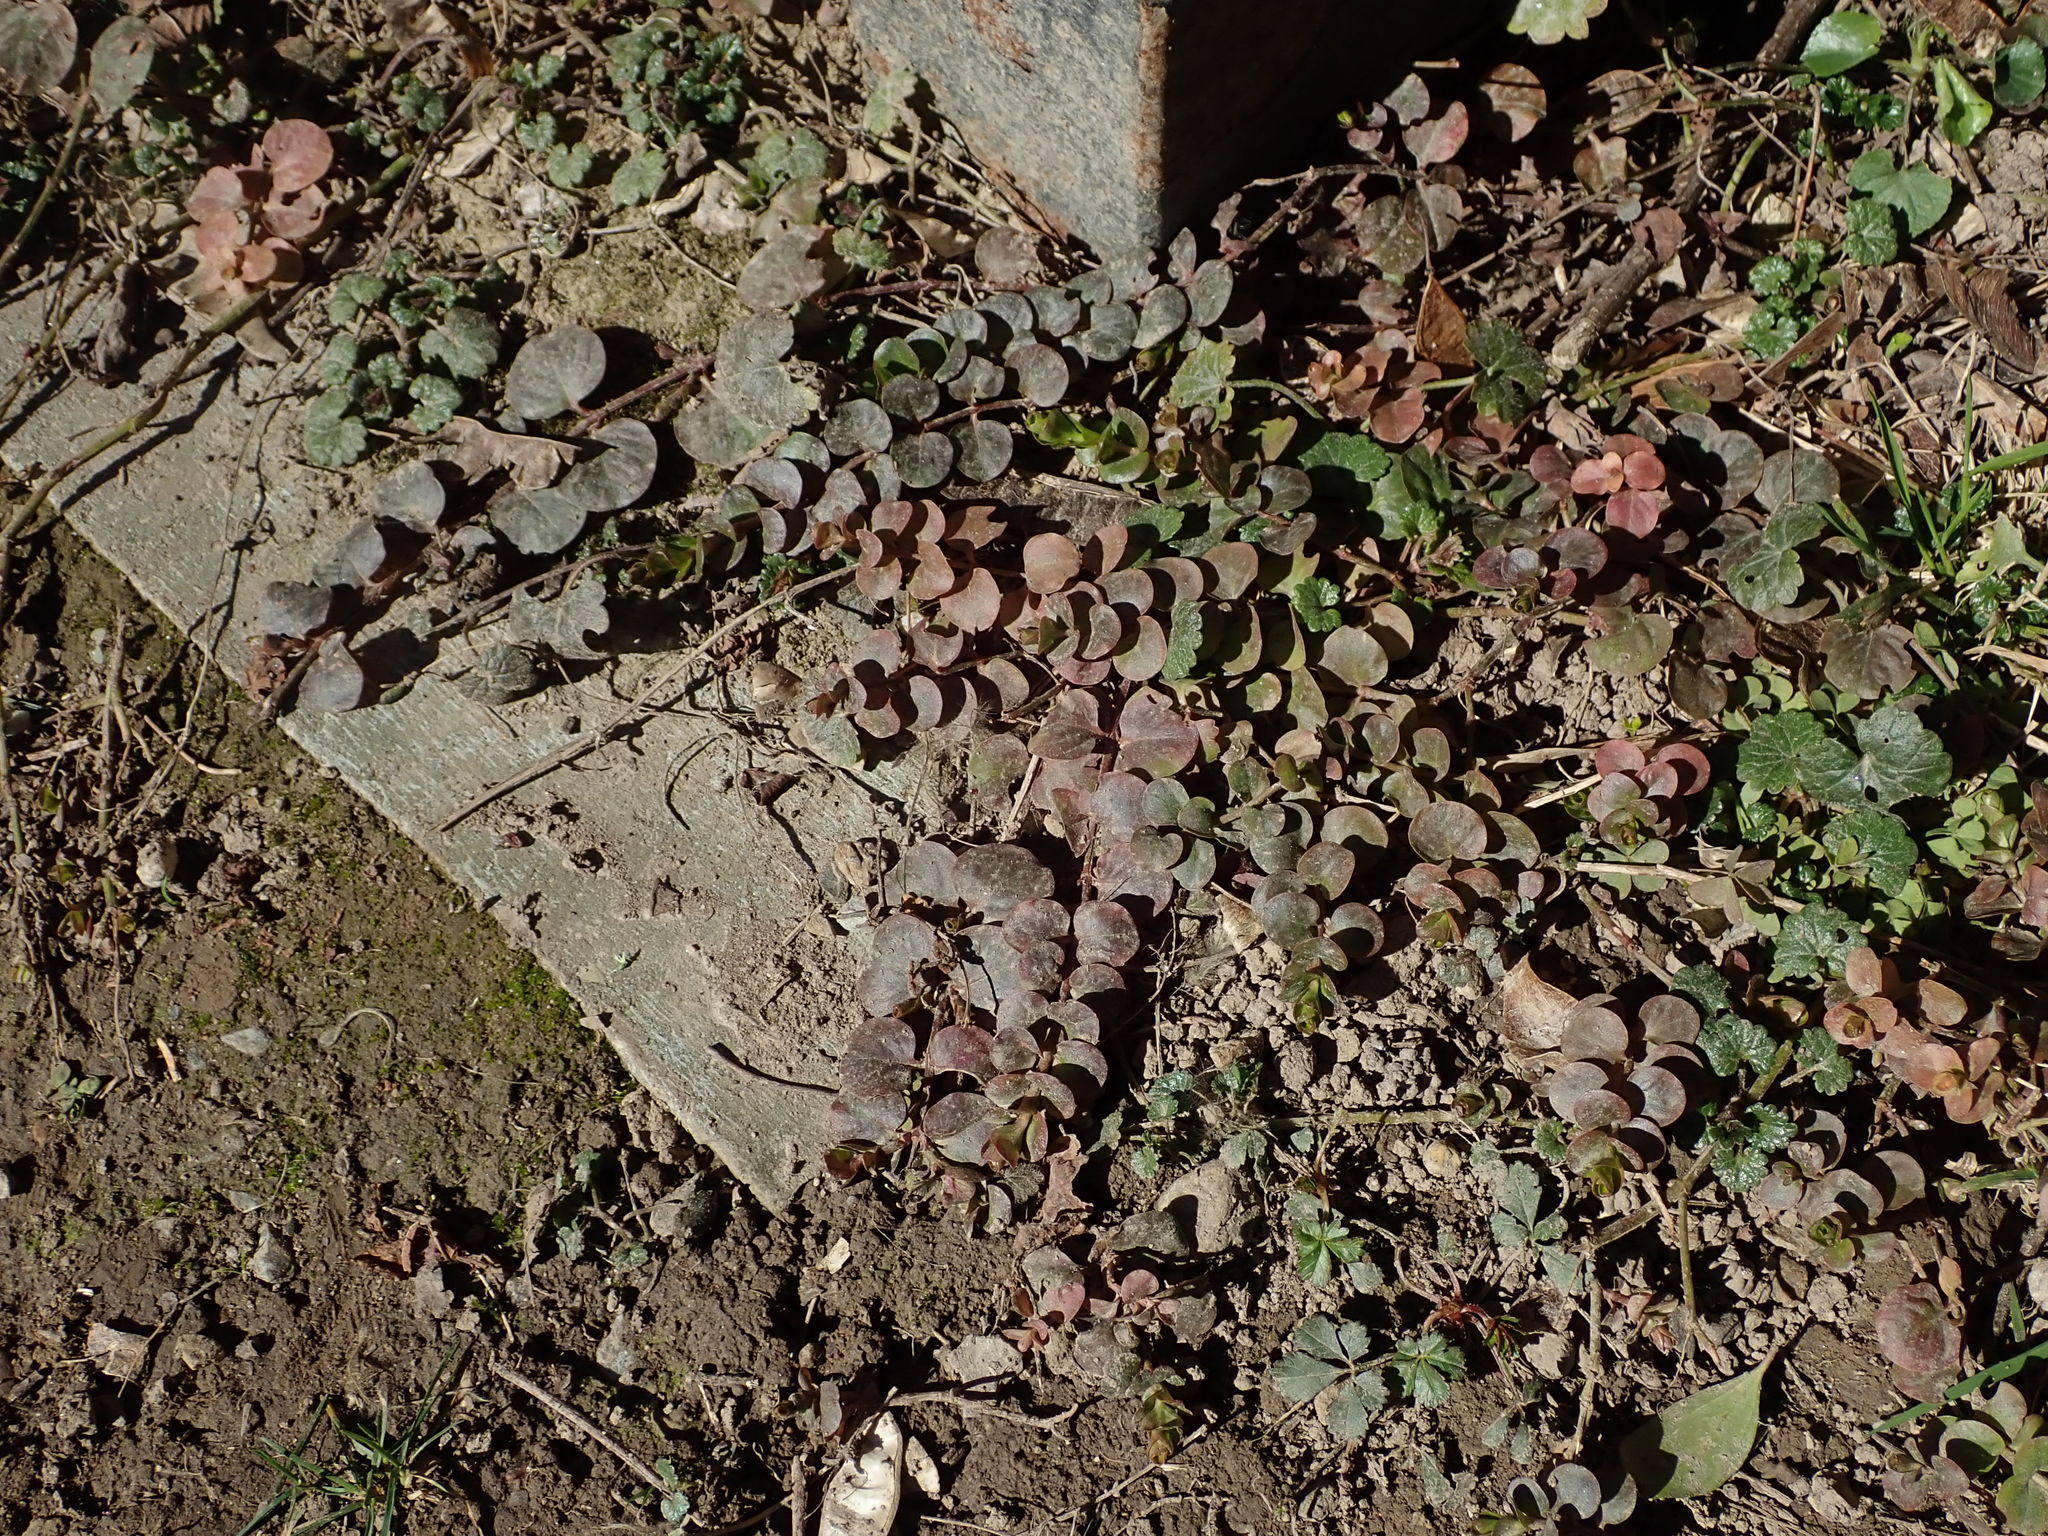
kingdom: Plantae
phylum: Tracheophyta
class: Magnoliopsida
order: Ericales
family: Primulaceae
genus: Lysimachia
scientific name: Lysimachia nummularia
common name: Moneywort
